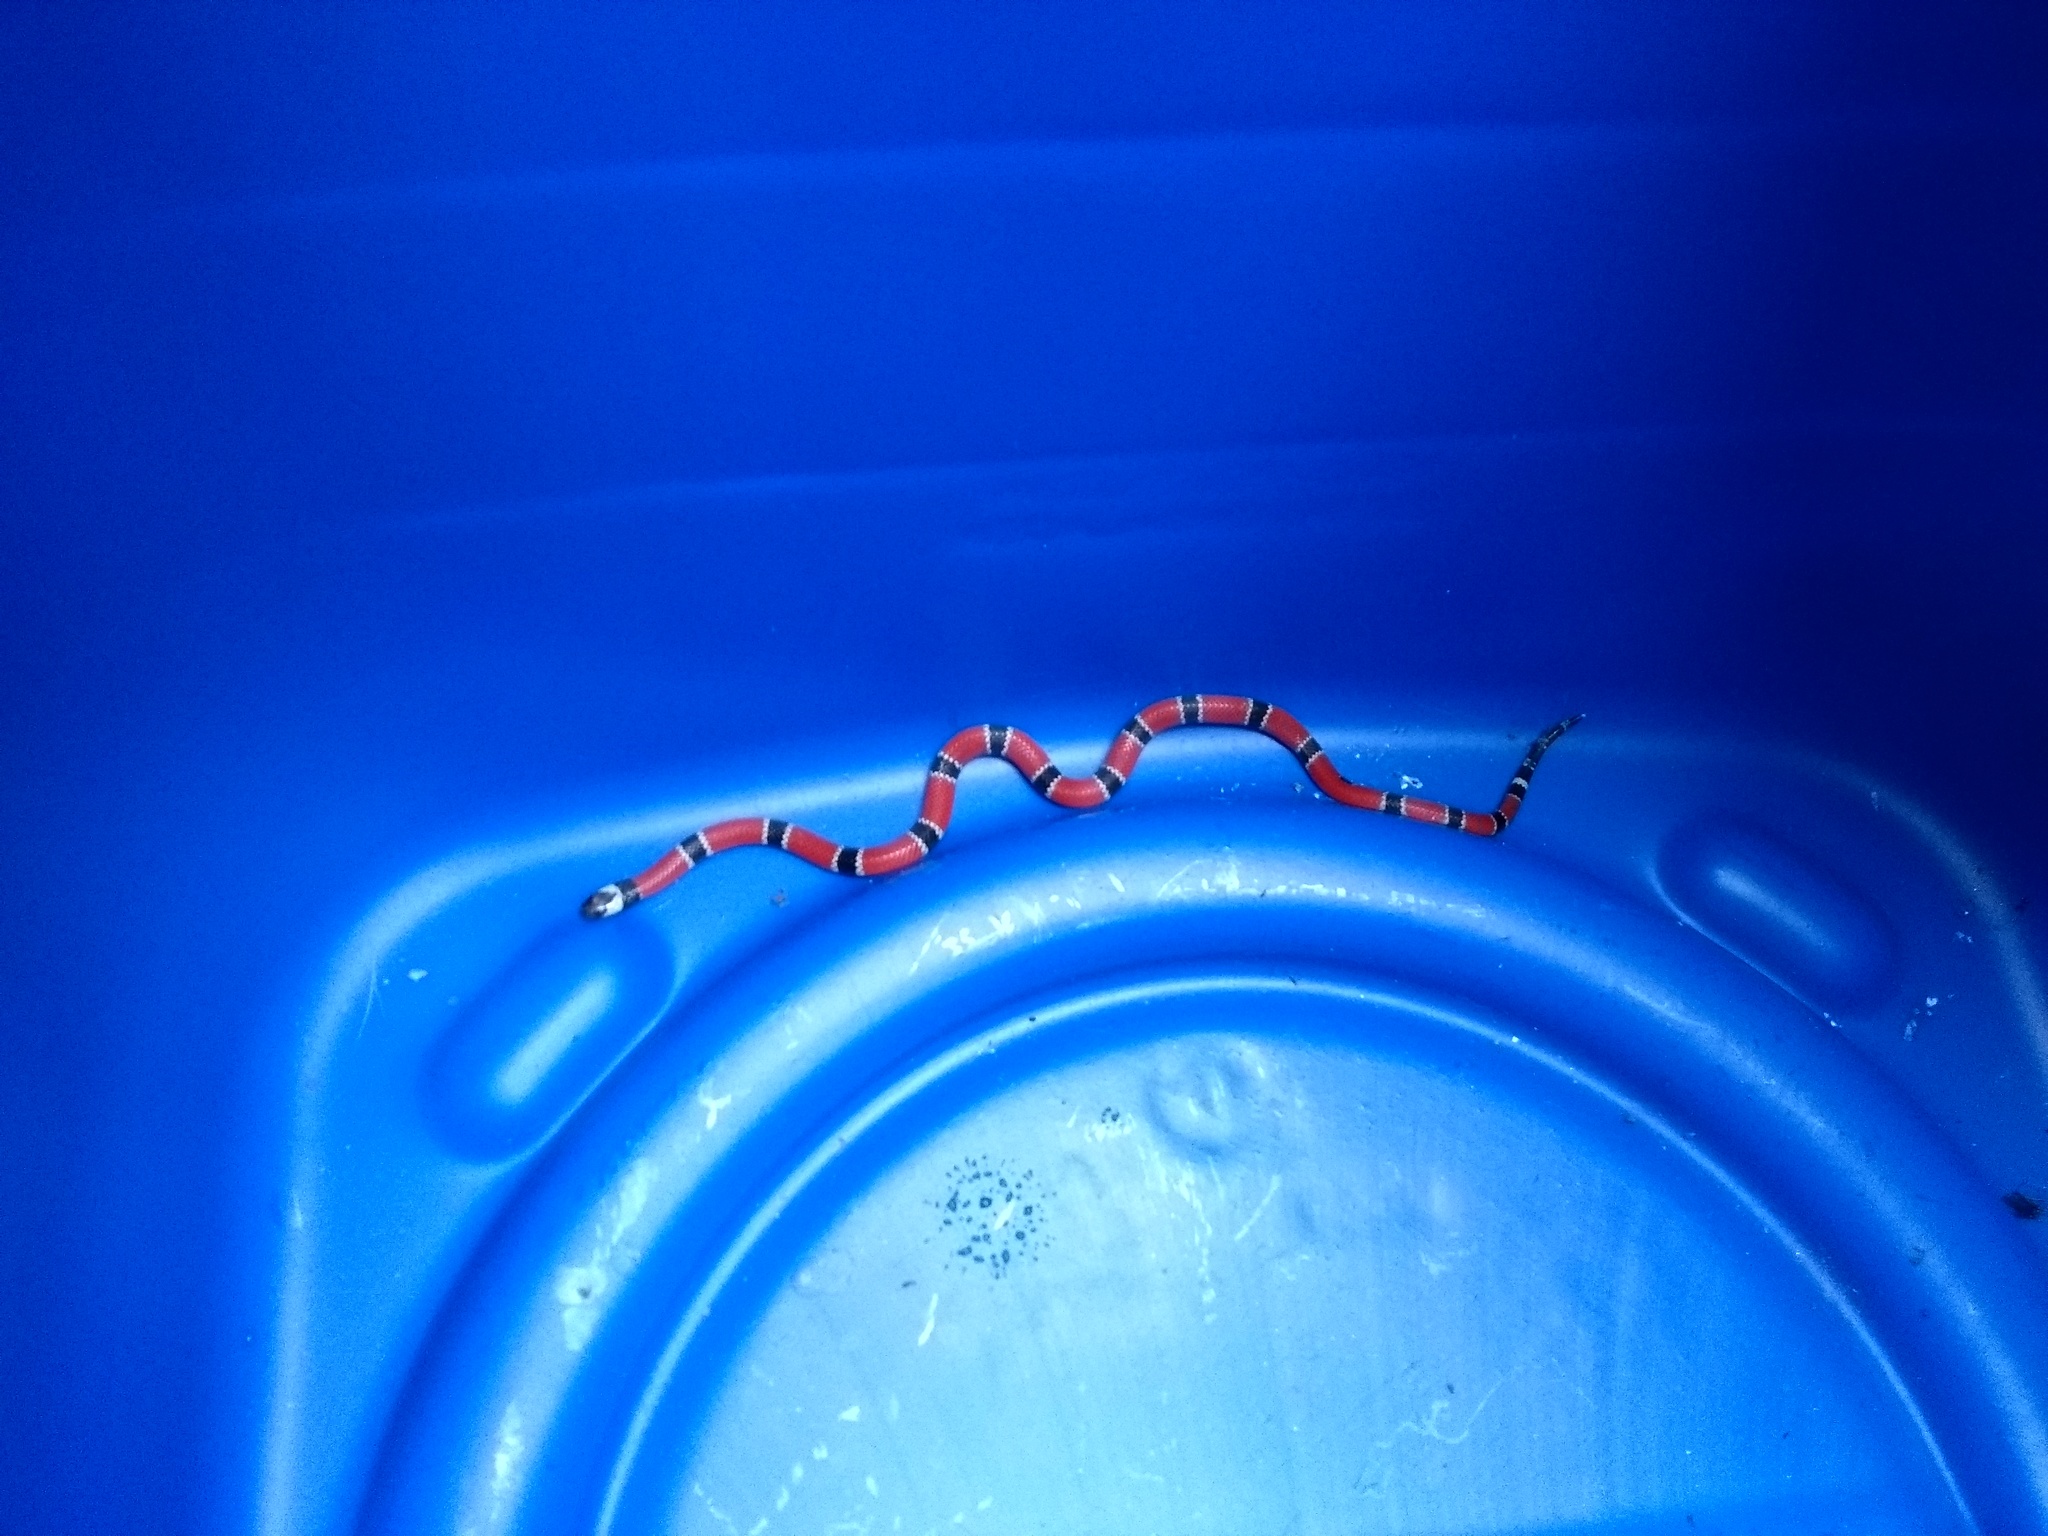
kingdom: Animalia
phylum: Chordata
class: Squamata
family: Elapidae
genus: Micrurus
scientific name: Micrurus corallinus
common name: Painted coral snake
